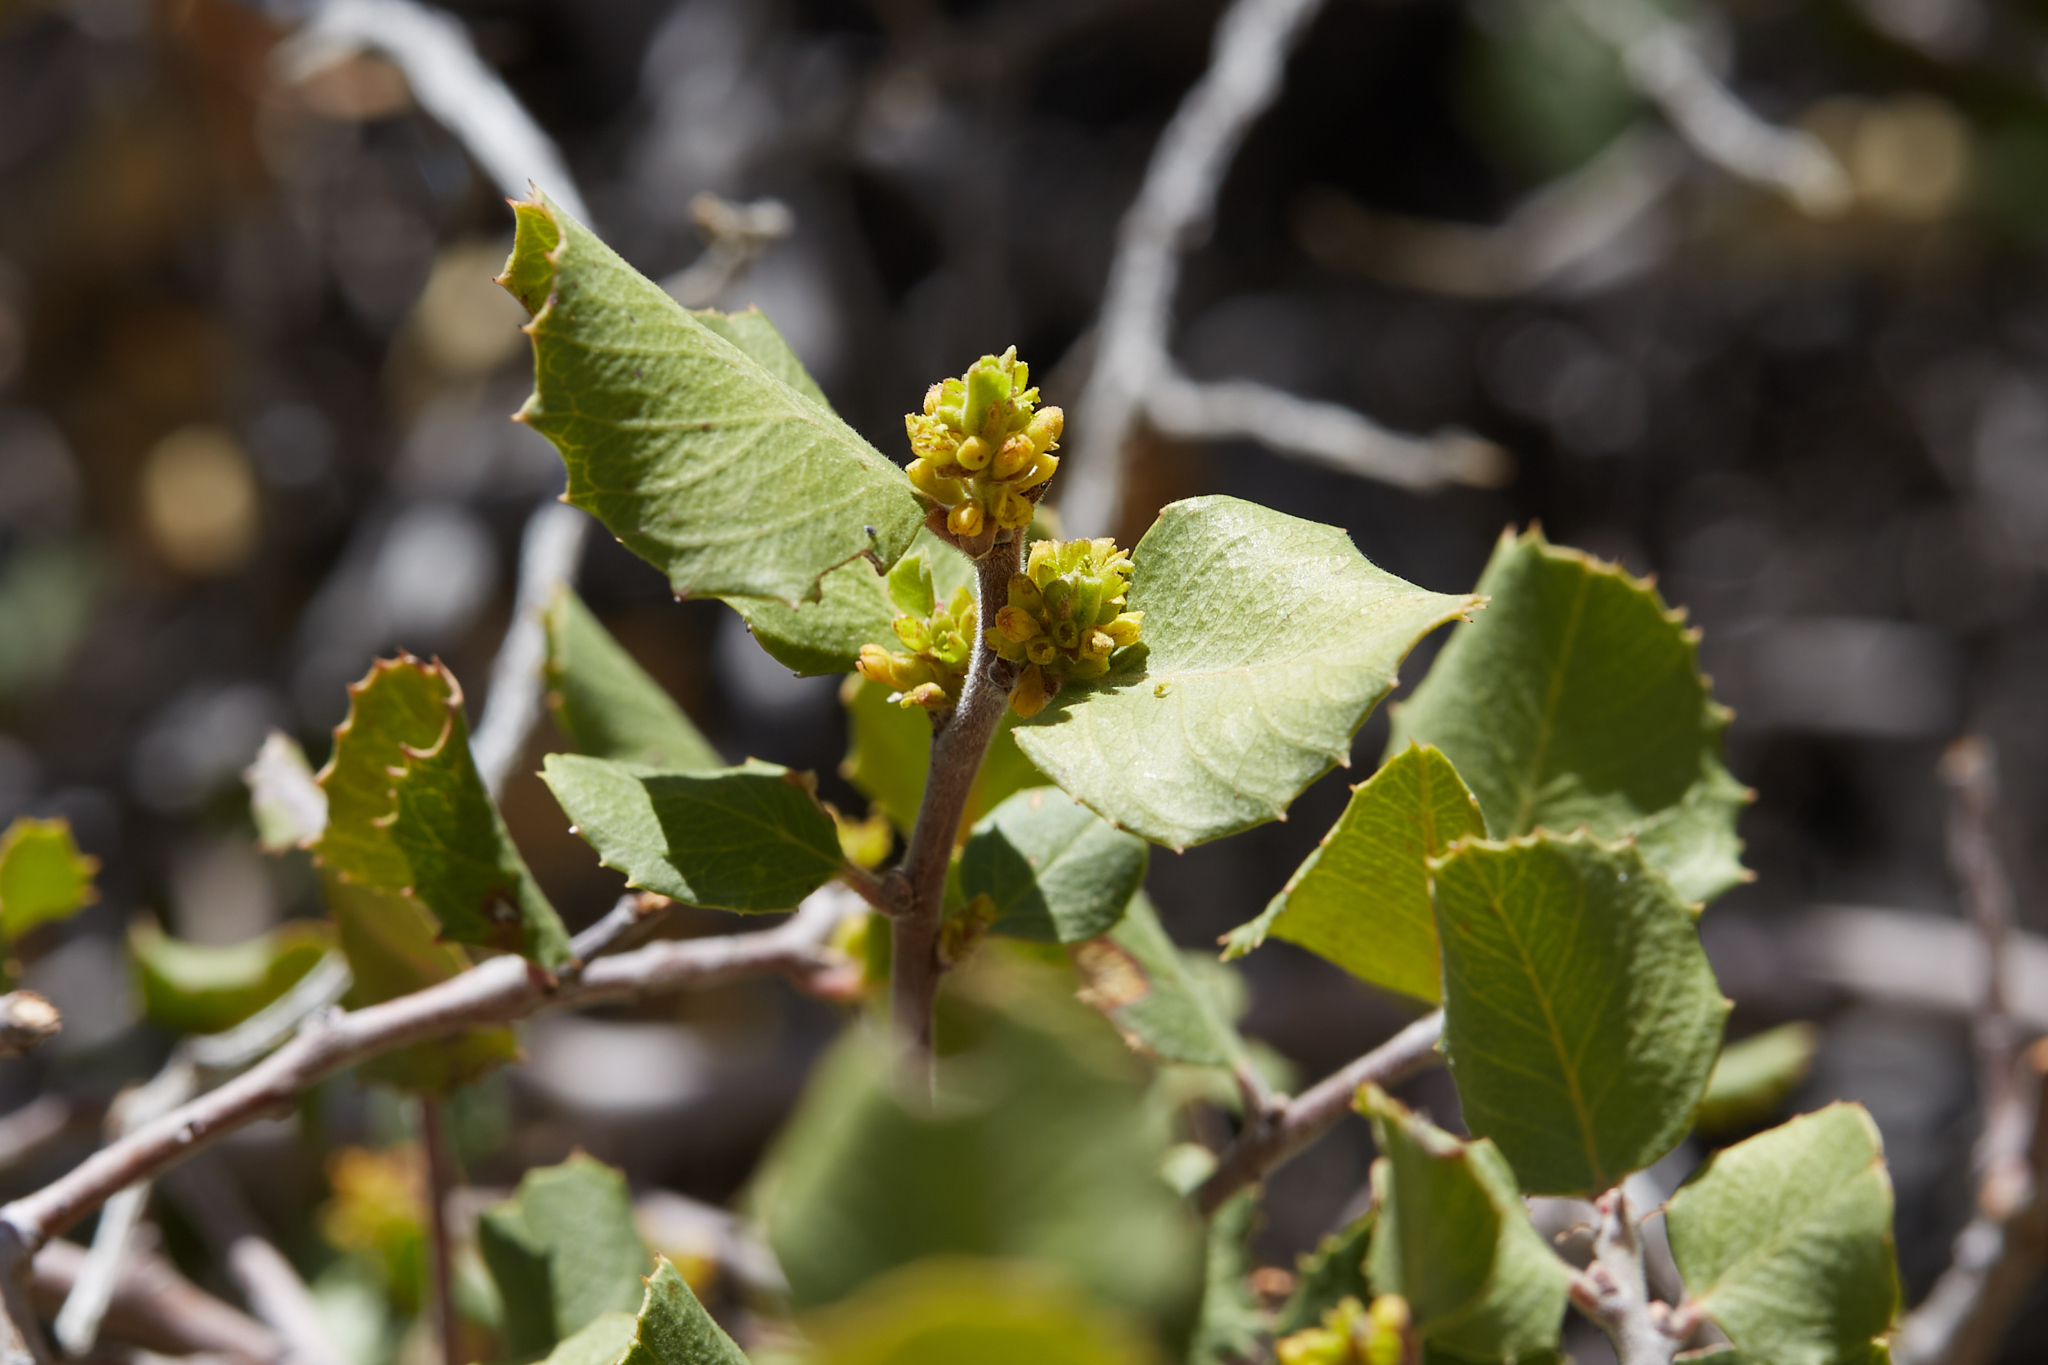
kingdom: Plantae
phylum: Tracheophyta
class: Magnoliopsida
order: Rosales
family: Rhamnaceae
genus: Endotropis
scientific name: Endotropis crocea
